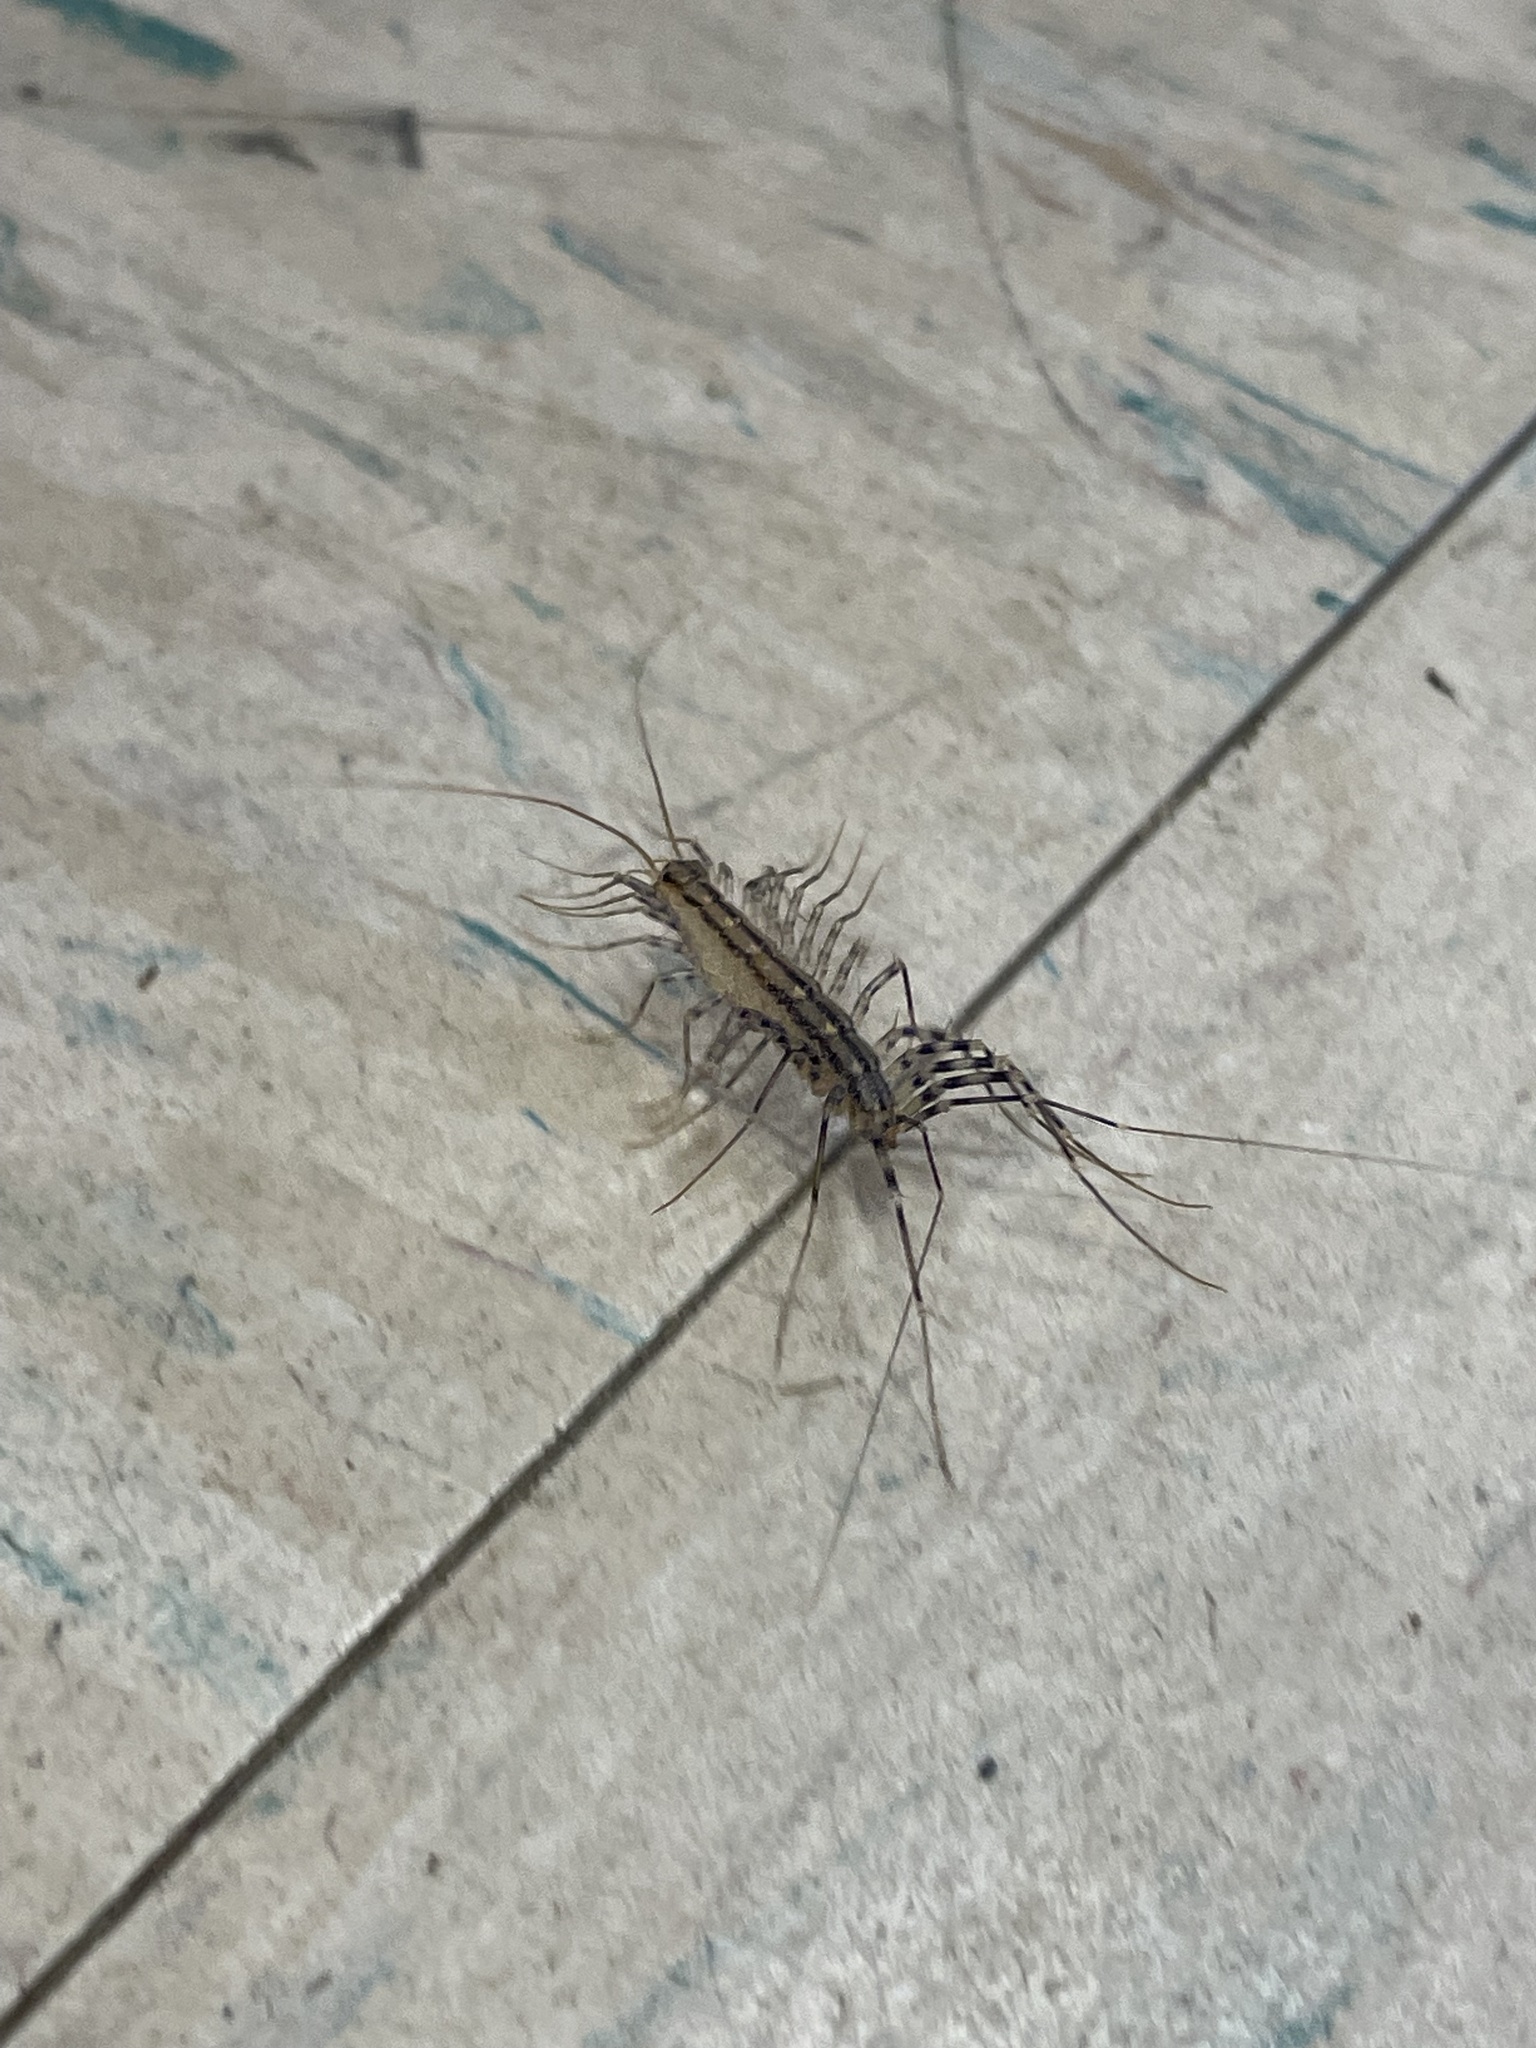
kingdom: Animalia
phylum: Arthropoda
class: Chilopoda
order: Scutigeromorpha
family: Scutigeridae
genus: Scutigera
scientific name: Scutigera coleoptrata
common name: House centipede
